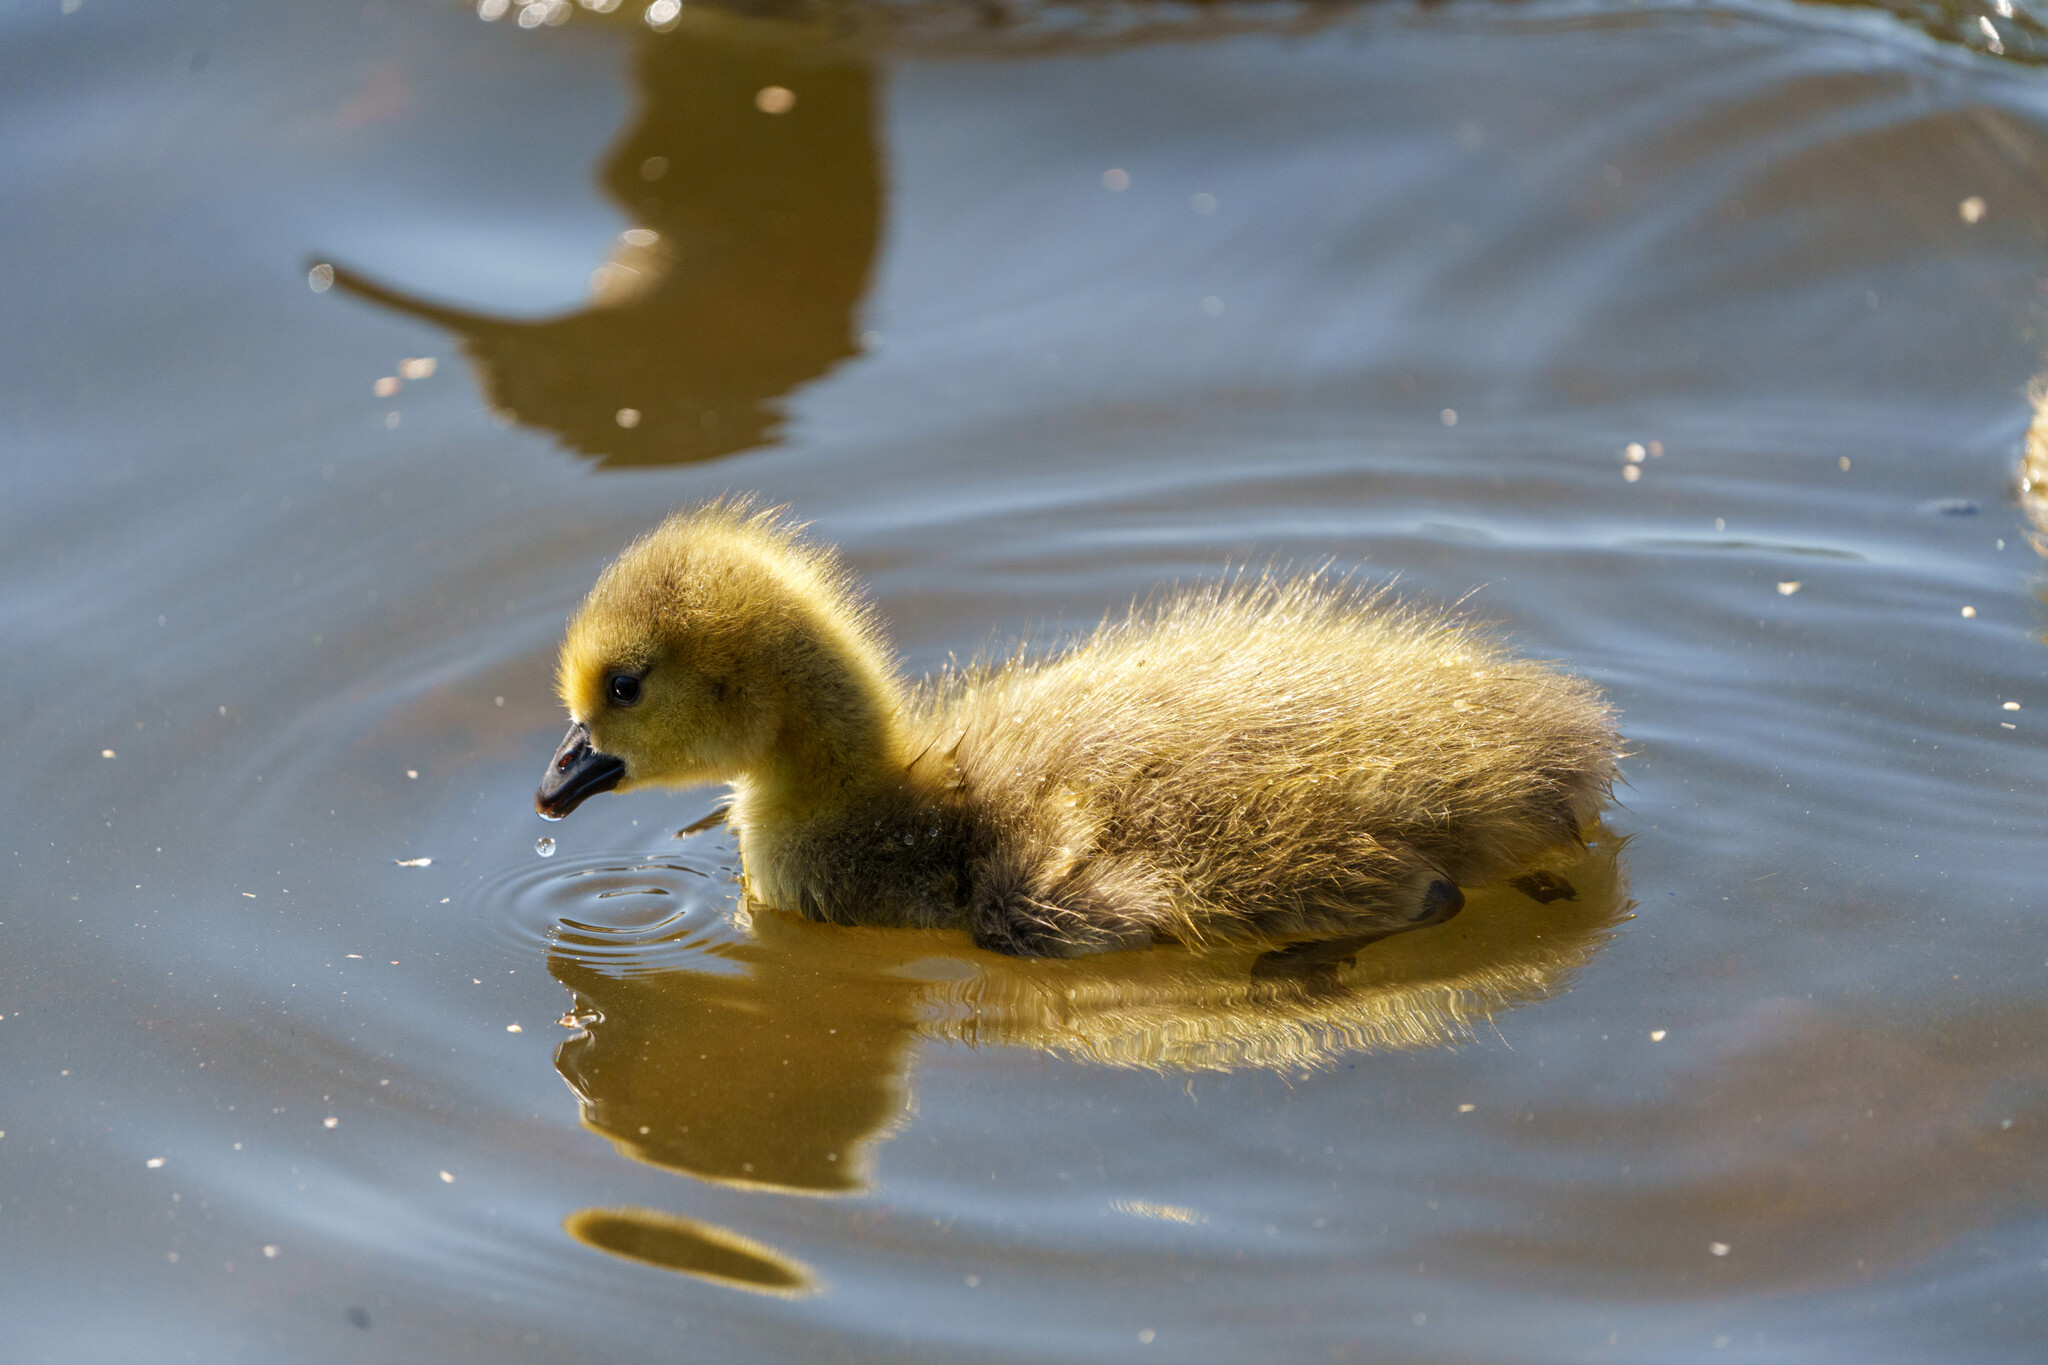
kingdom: Animalia
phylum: Chordata
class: Aves
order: Anseriformes
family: Anatidae
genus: Branta
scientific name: Branta canadensis
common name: Canada goose
